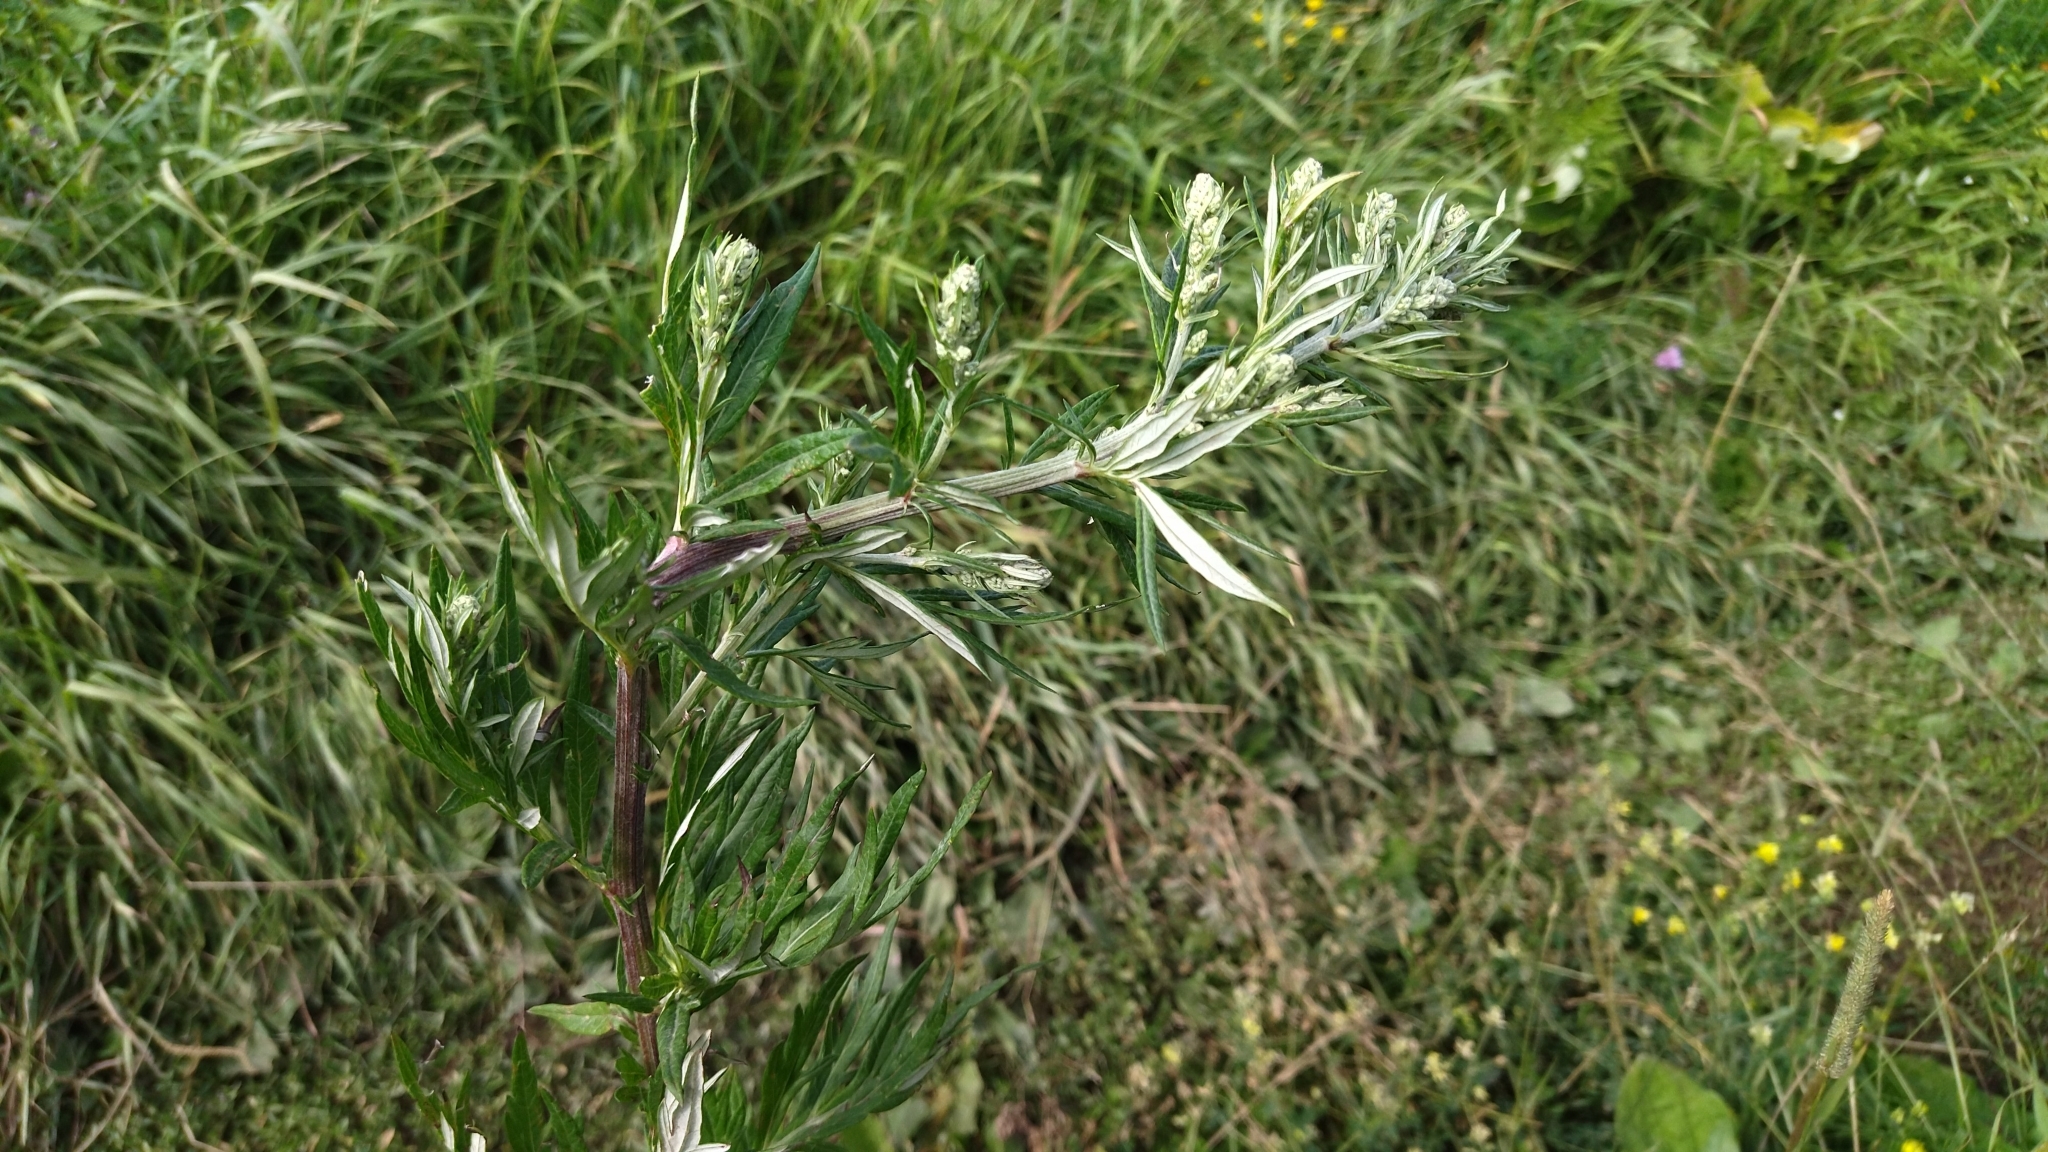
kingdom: Plantae
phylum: Tracheophyta
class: Magnoliopsida
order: Asterales
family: Asteraceae
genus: Artemisia
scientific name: Artemisia vulgaris
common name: Mugwort
